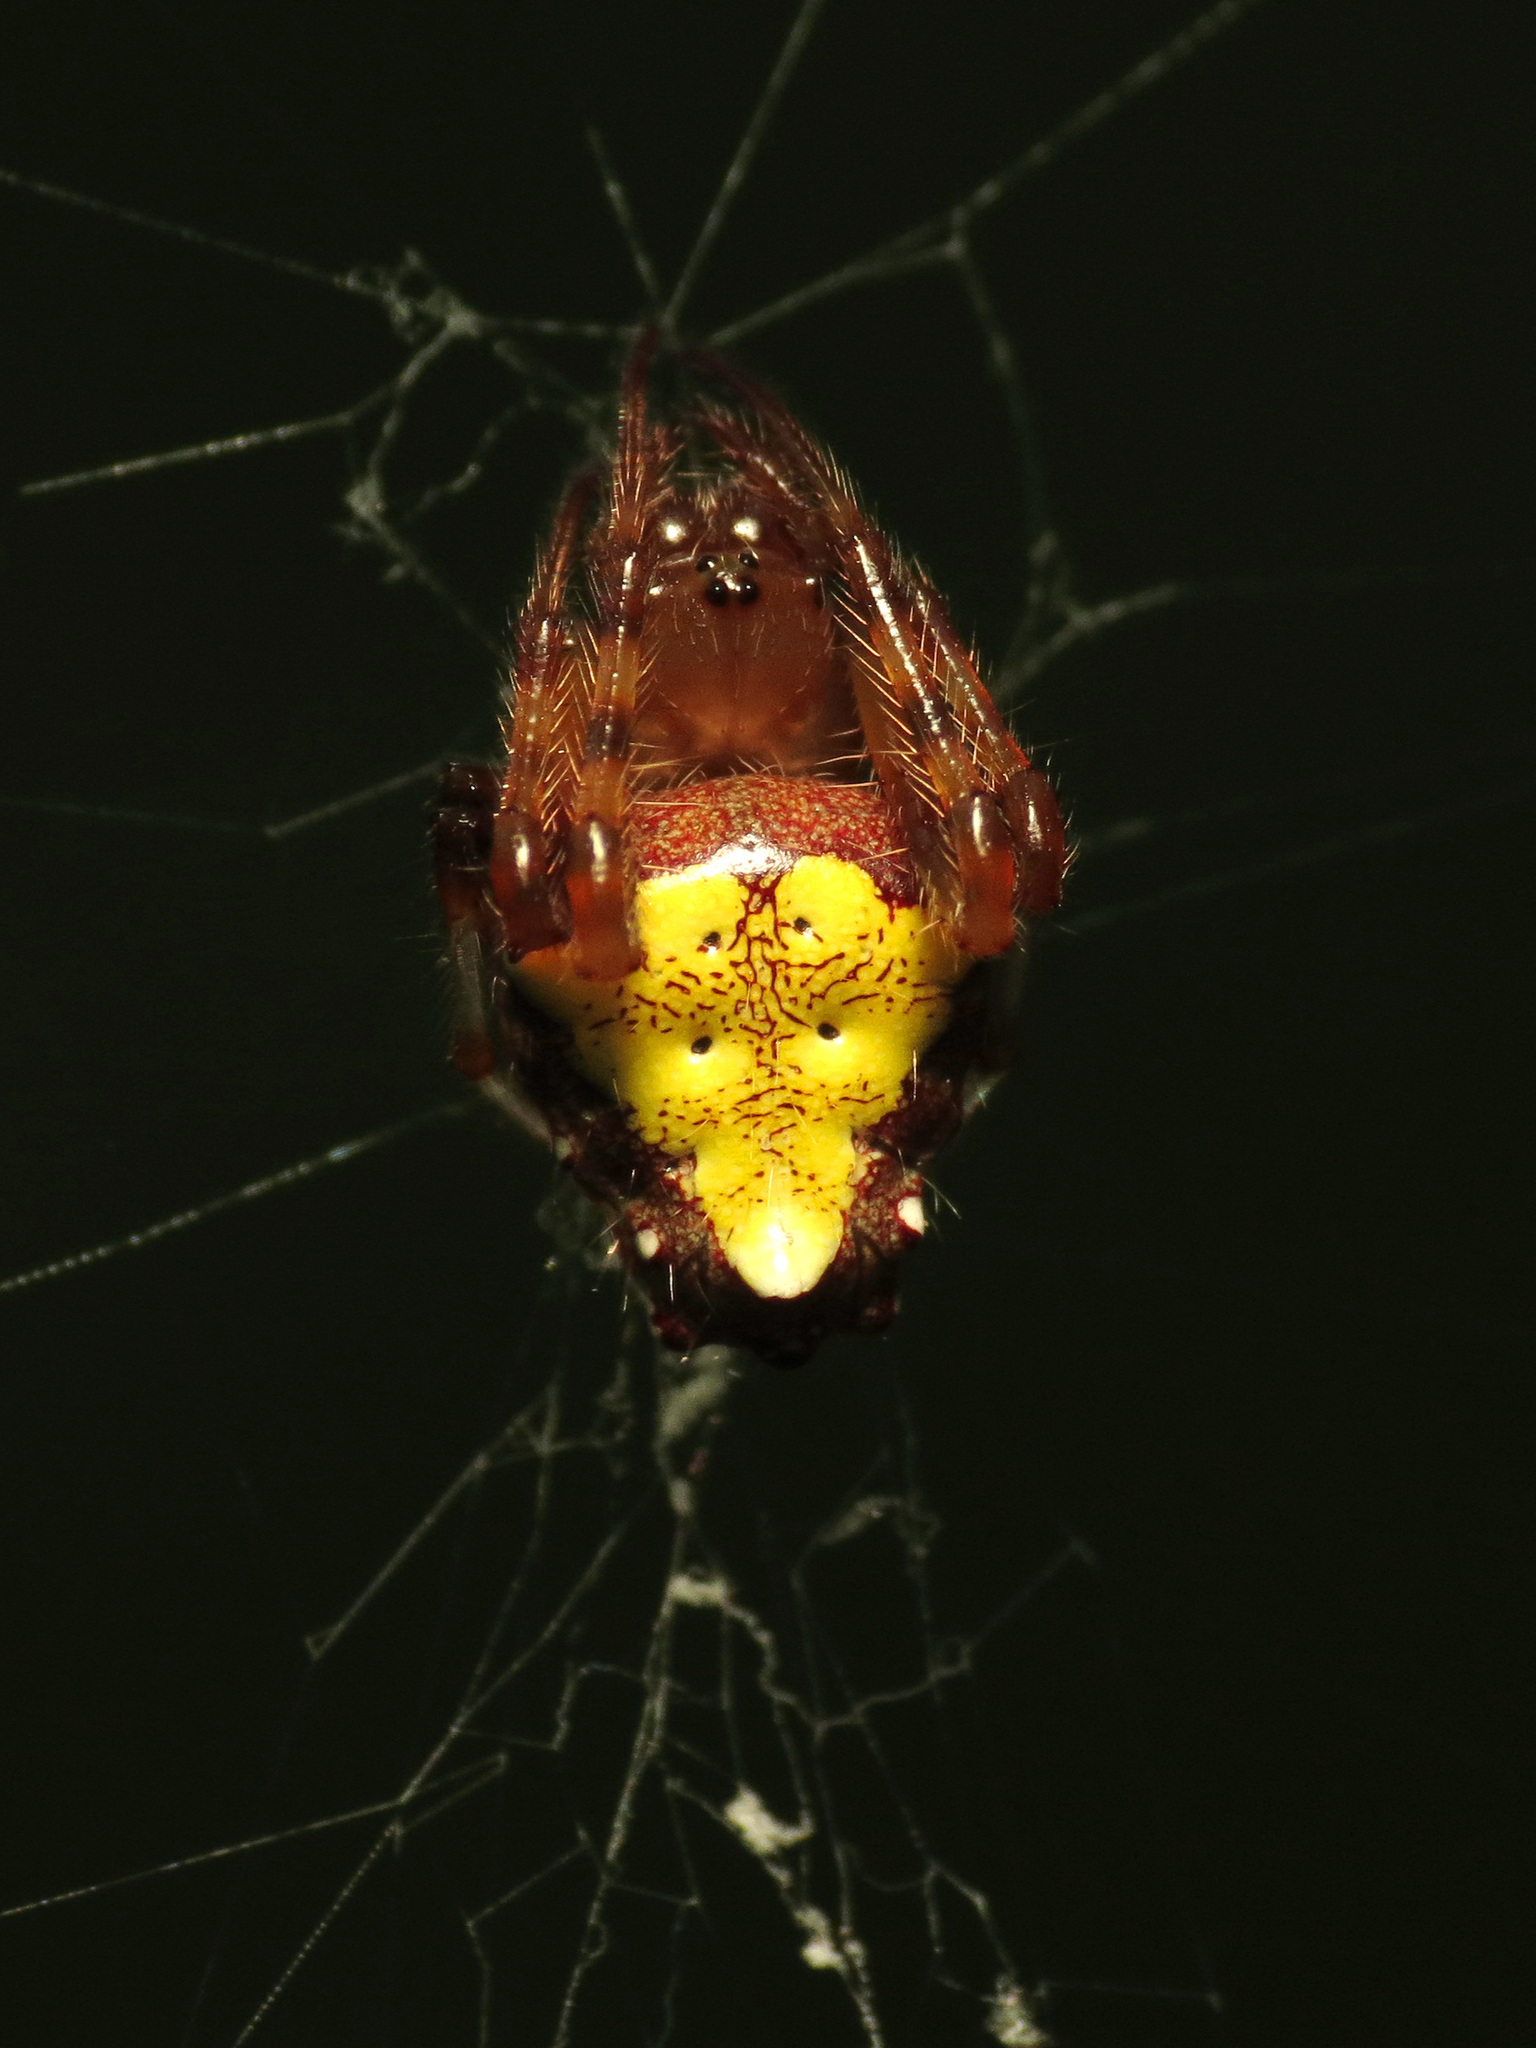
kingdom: Animalia
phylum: Arthropoda
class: Arachnida
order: Araneae
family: Araneidae
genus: Verrucosa
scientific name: Verrucosa arenata
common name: Orb weavers
